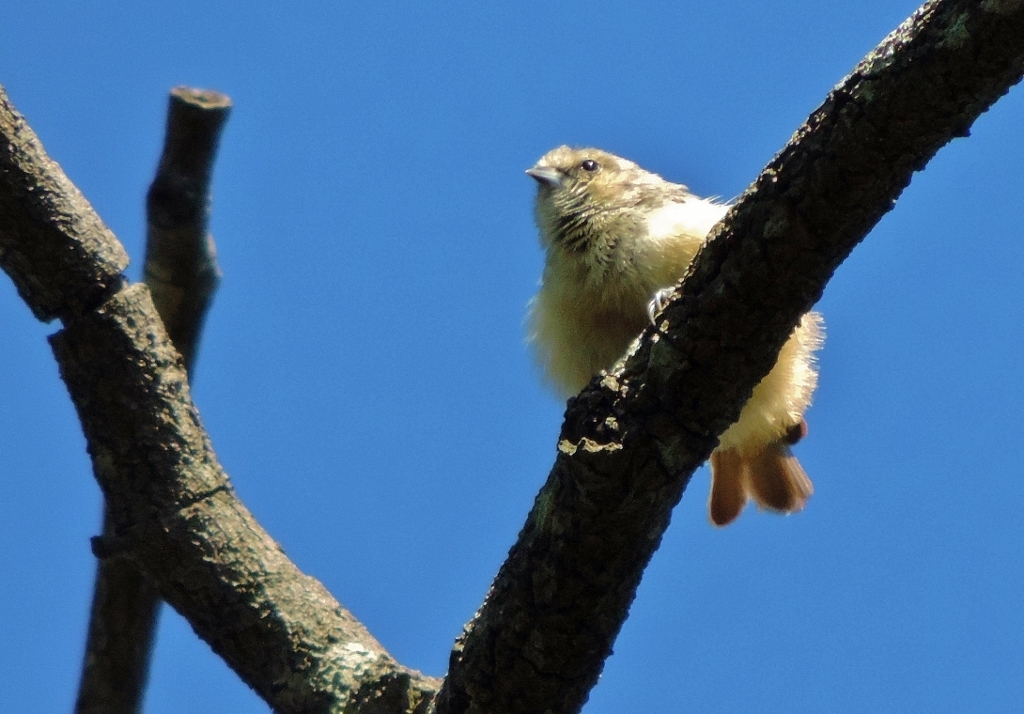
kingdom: Animalia
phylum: Chordata
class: Aves
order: Passeriformes
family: Remizidae
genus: Anthoscopus
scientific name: Anthoscopus caroli
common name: Grey penduline tit
